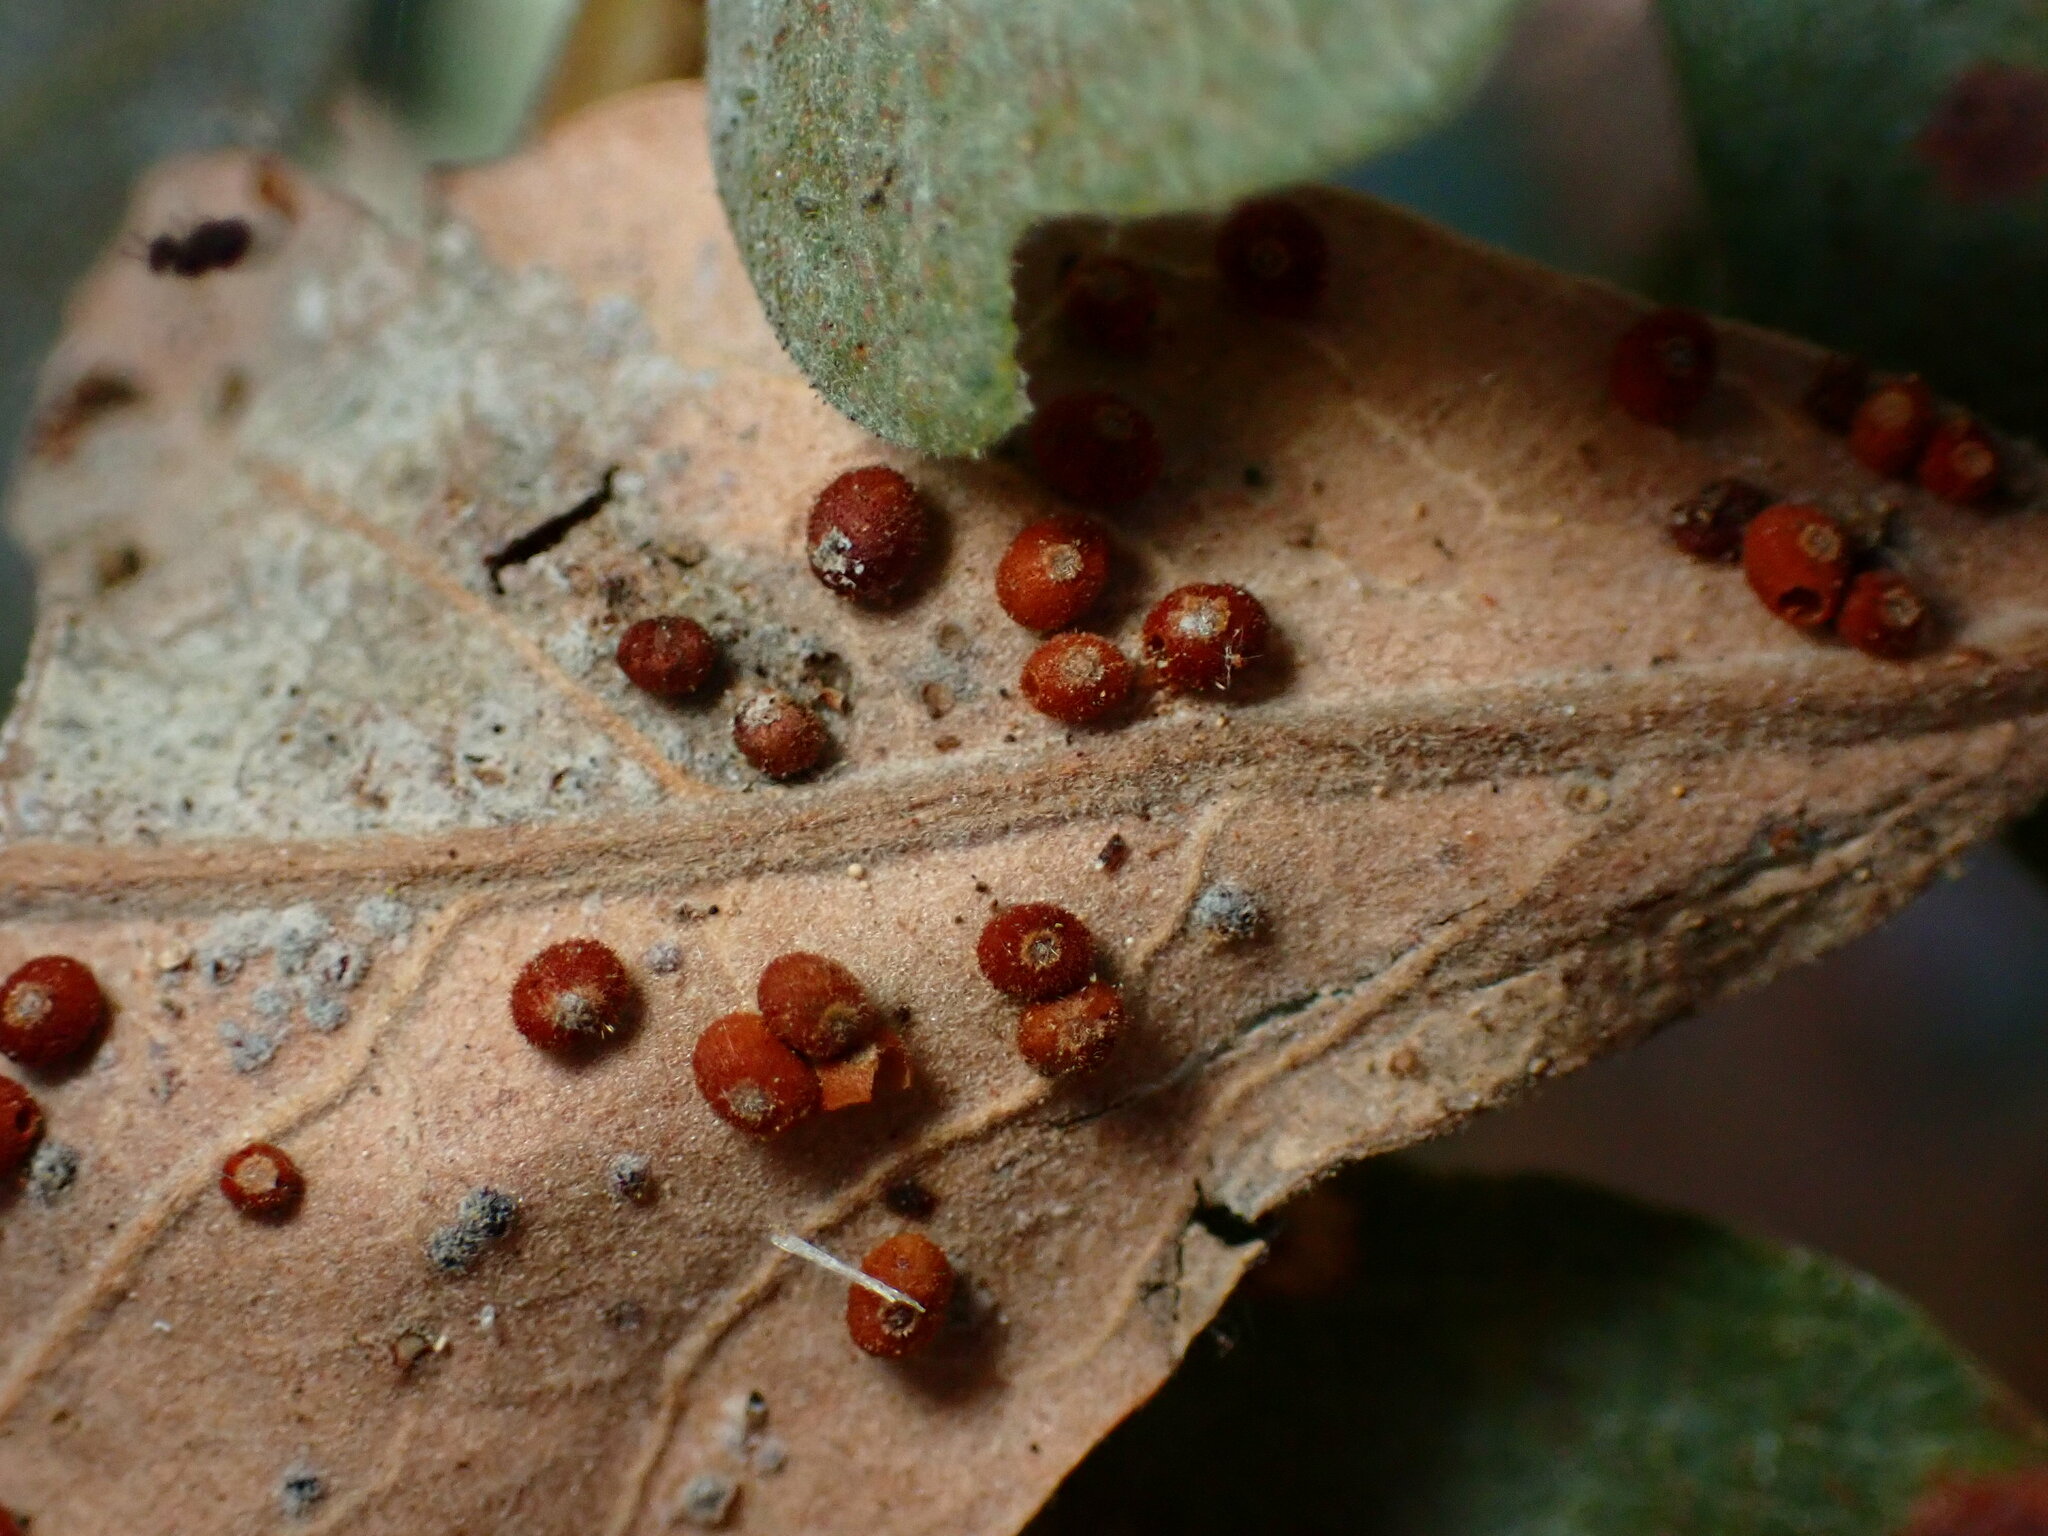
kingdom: Animalia
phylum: Arthropoda
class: Insecta
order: Hymenoptera
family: Cynipidae
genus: Neuroterus
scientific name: Neuroterus saltarius
